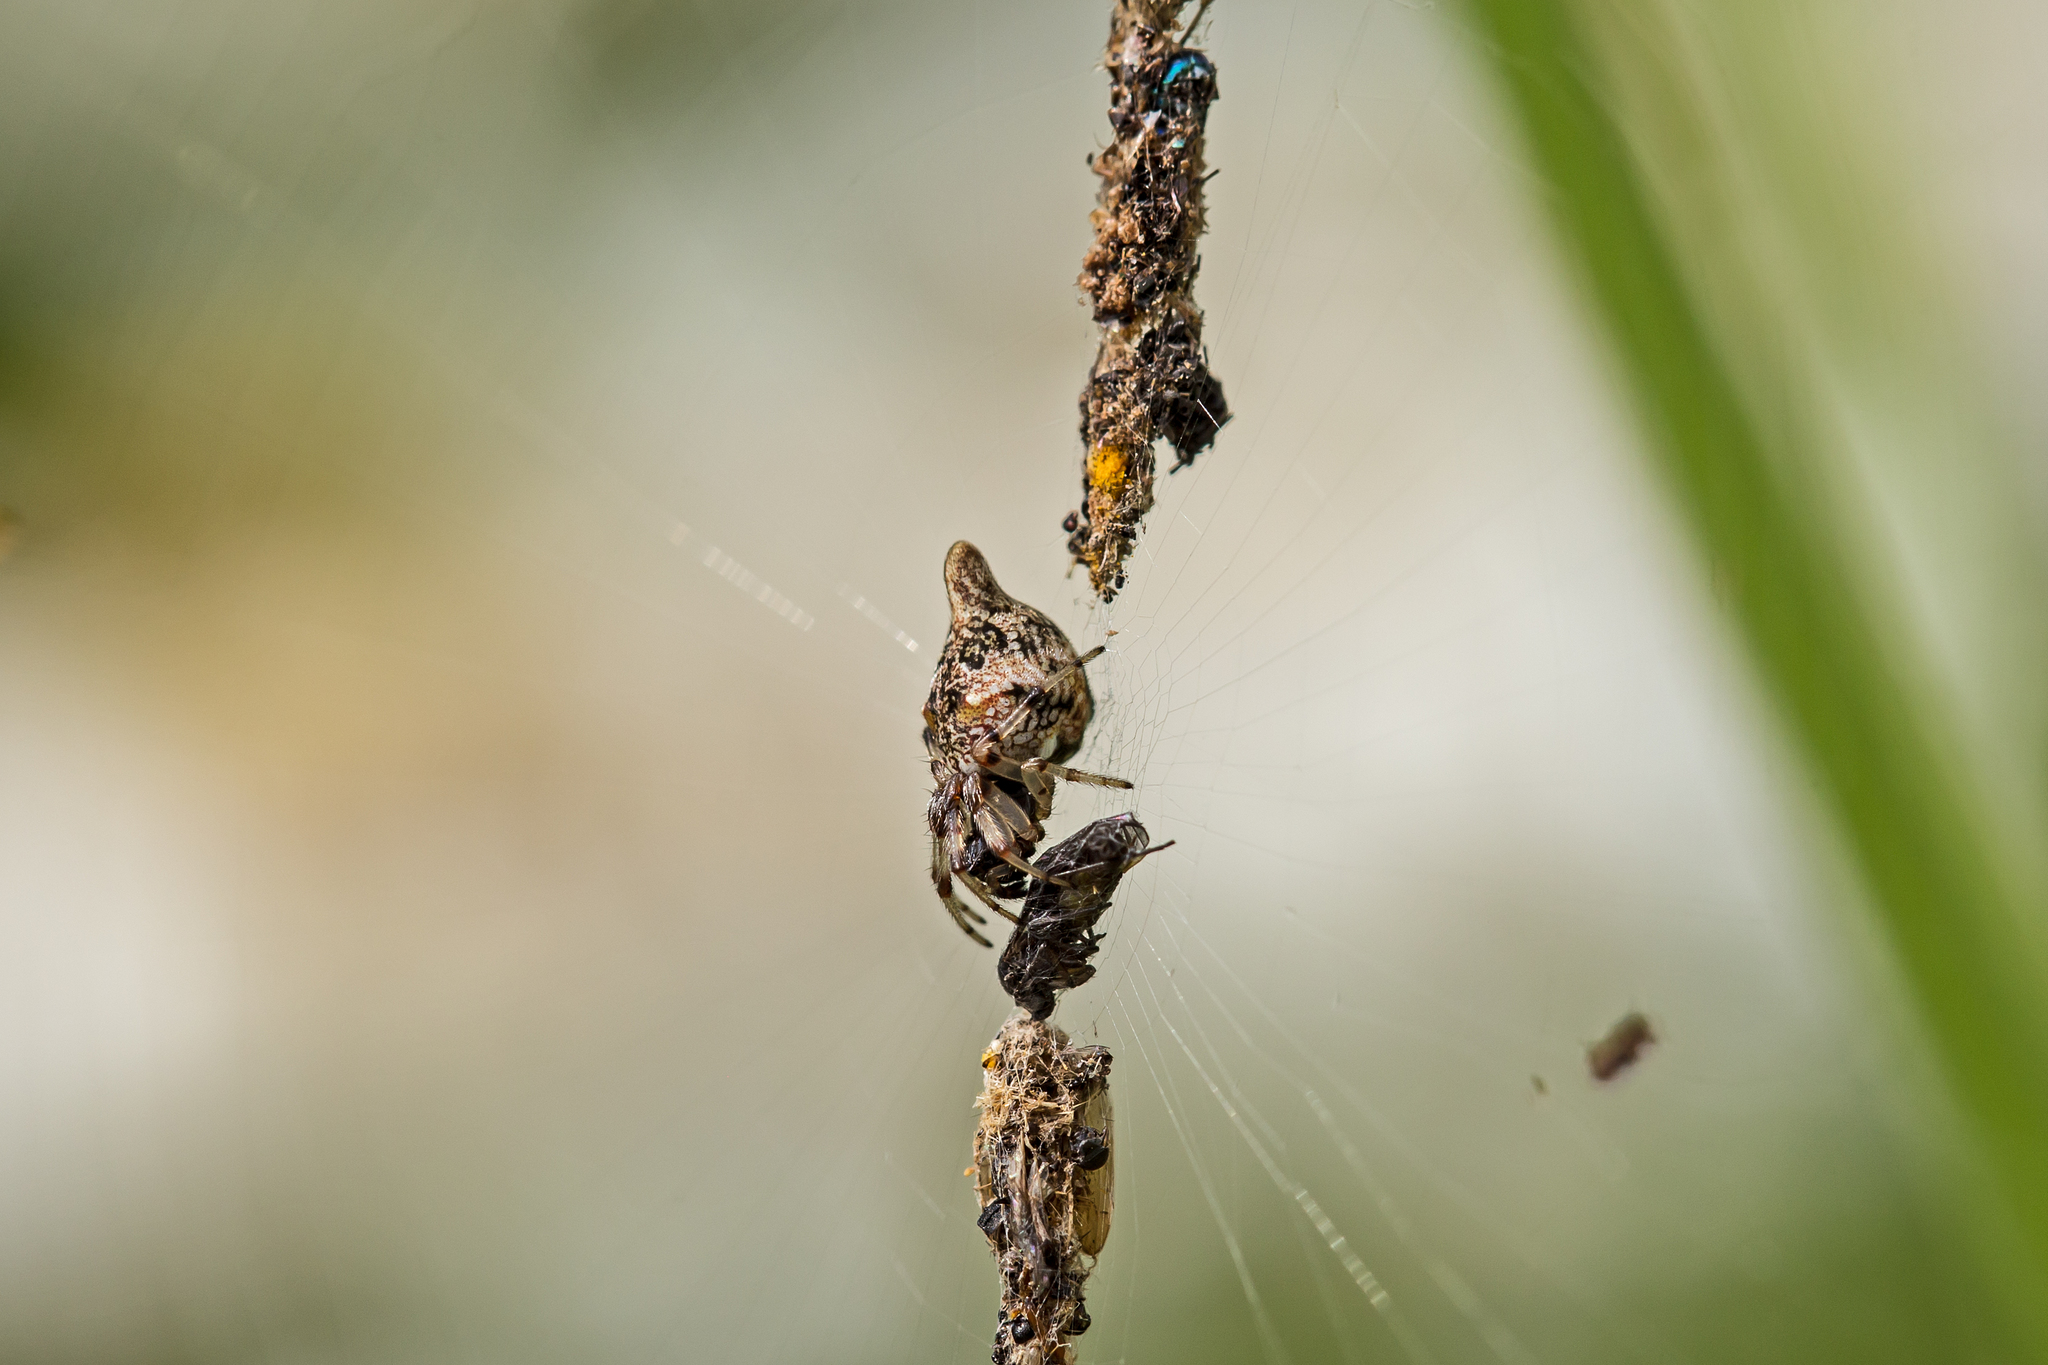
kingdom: Animalia
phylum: Arthropoda
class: Arachnida
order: Araneae
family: Araneidae
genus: Cyclosa
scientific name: Cyclosa turbinata
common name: Orb weavers
